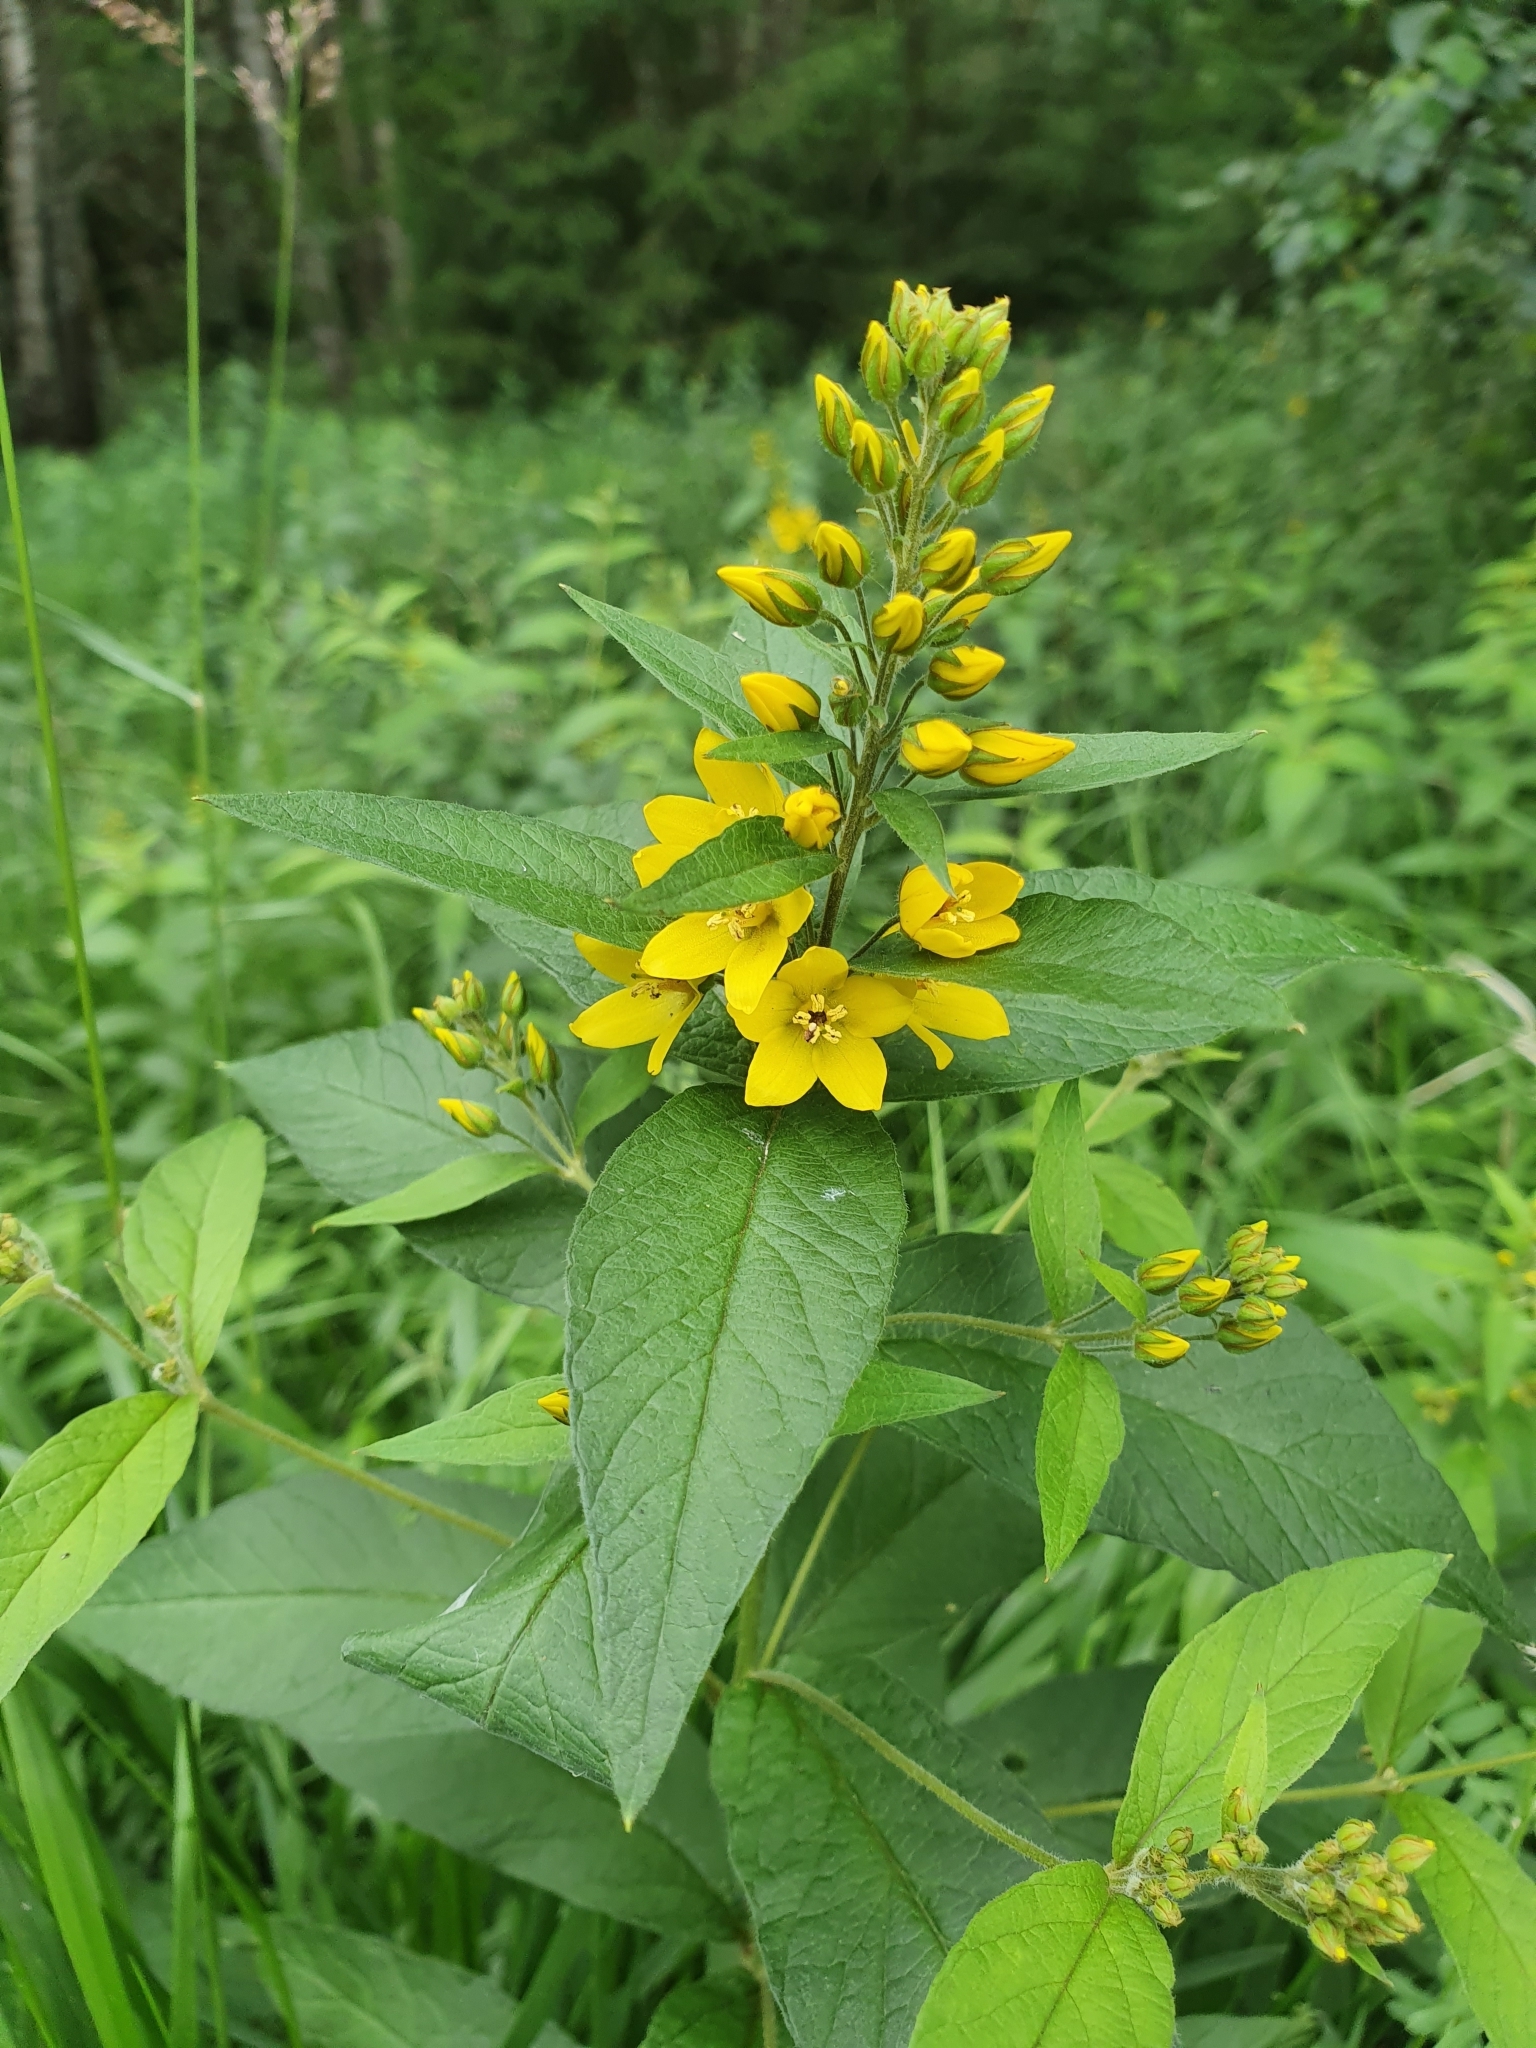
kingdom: Plantae
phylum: Tracheophyta
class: Magnoliopsida
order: Ericales
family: Primulaceae
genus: Lysimachia
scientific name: Lysimachia vulgaris
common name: Yellow loosestrife
